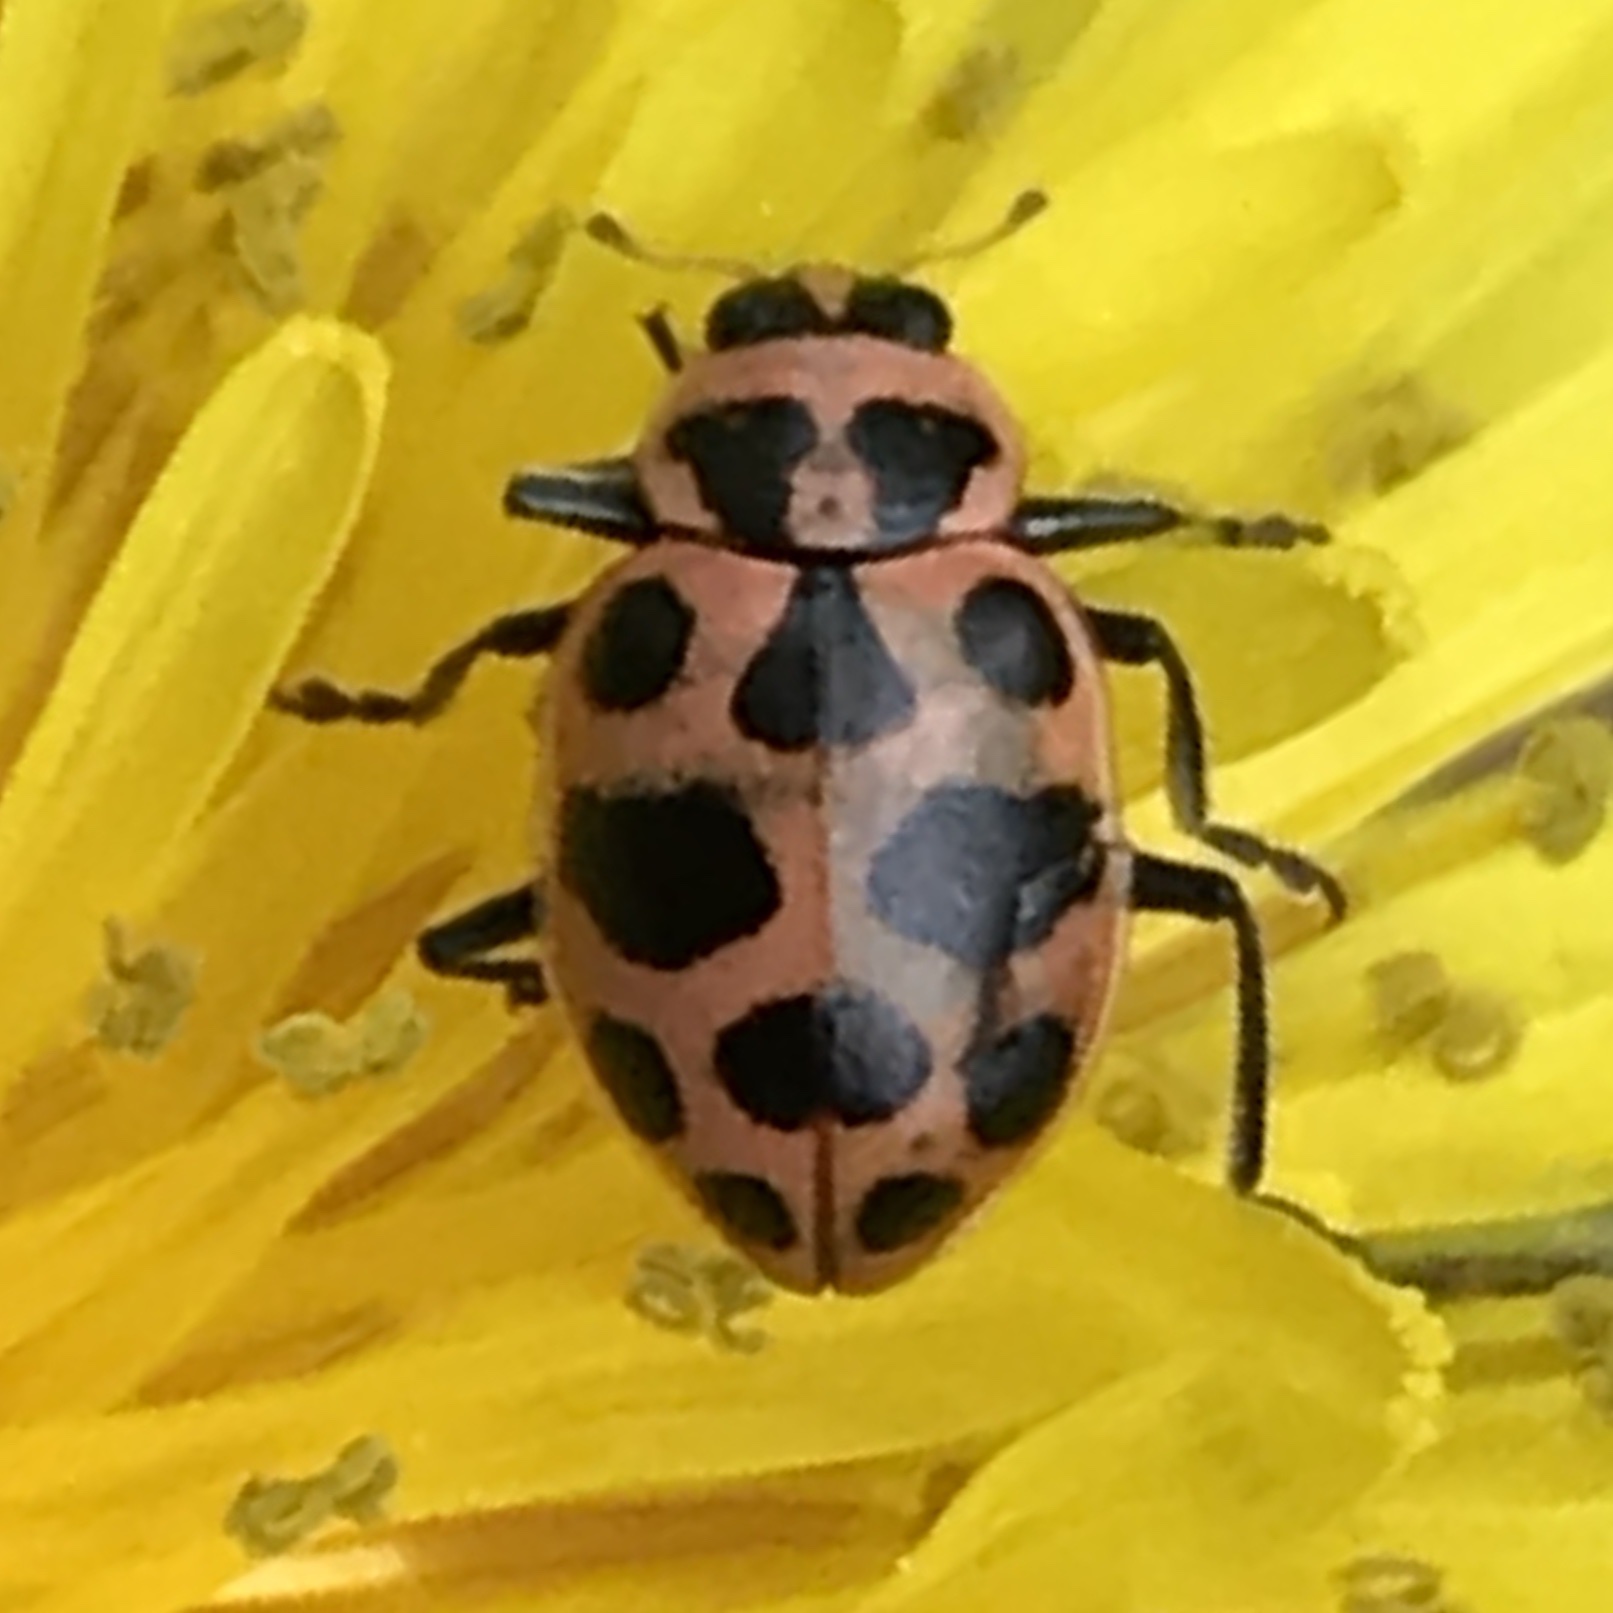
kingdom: Animalia
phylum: Arthropoda
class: Insecta
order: Coleoptera
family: Coccinellidae
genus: Coleomegilla
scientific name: Coleomegilla maculata
